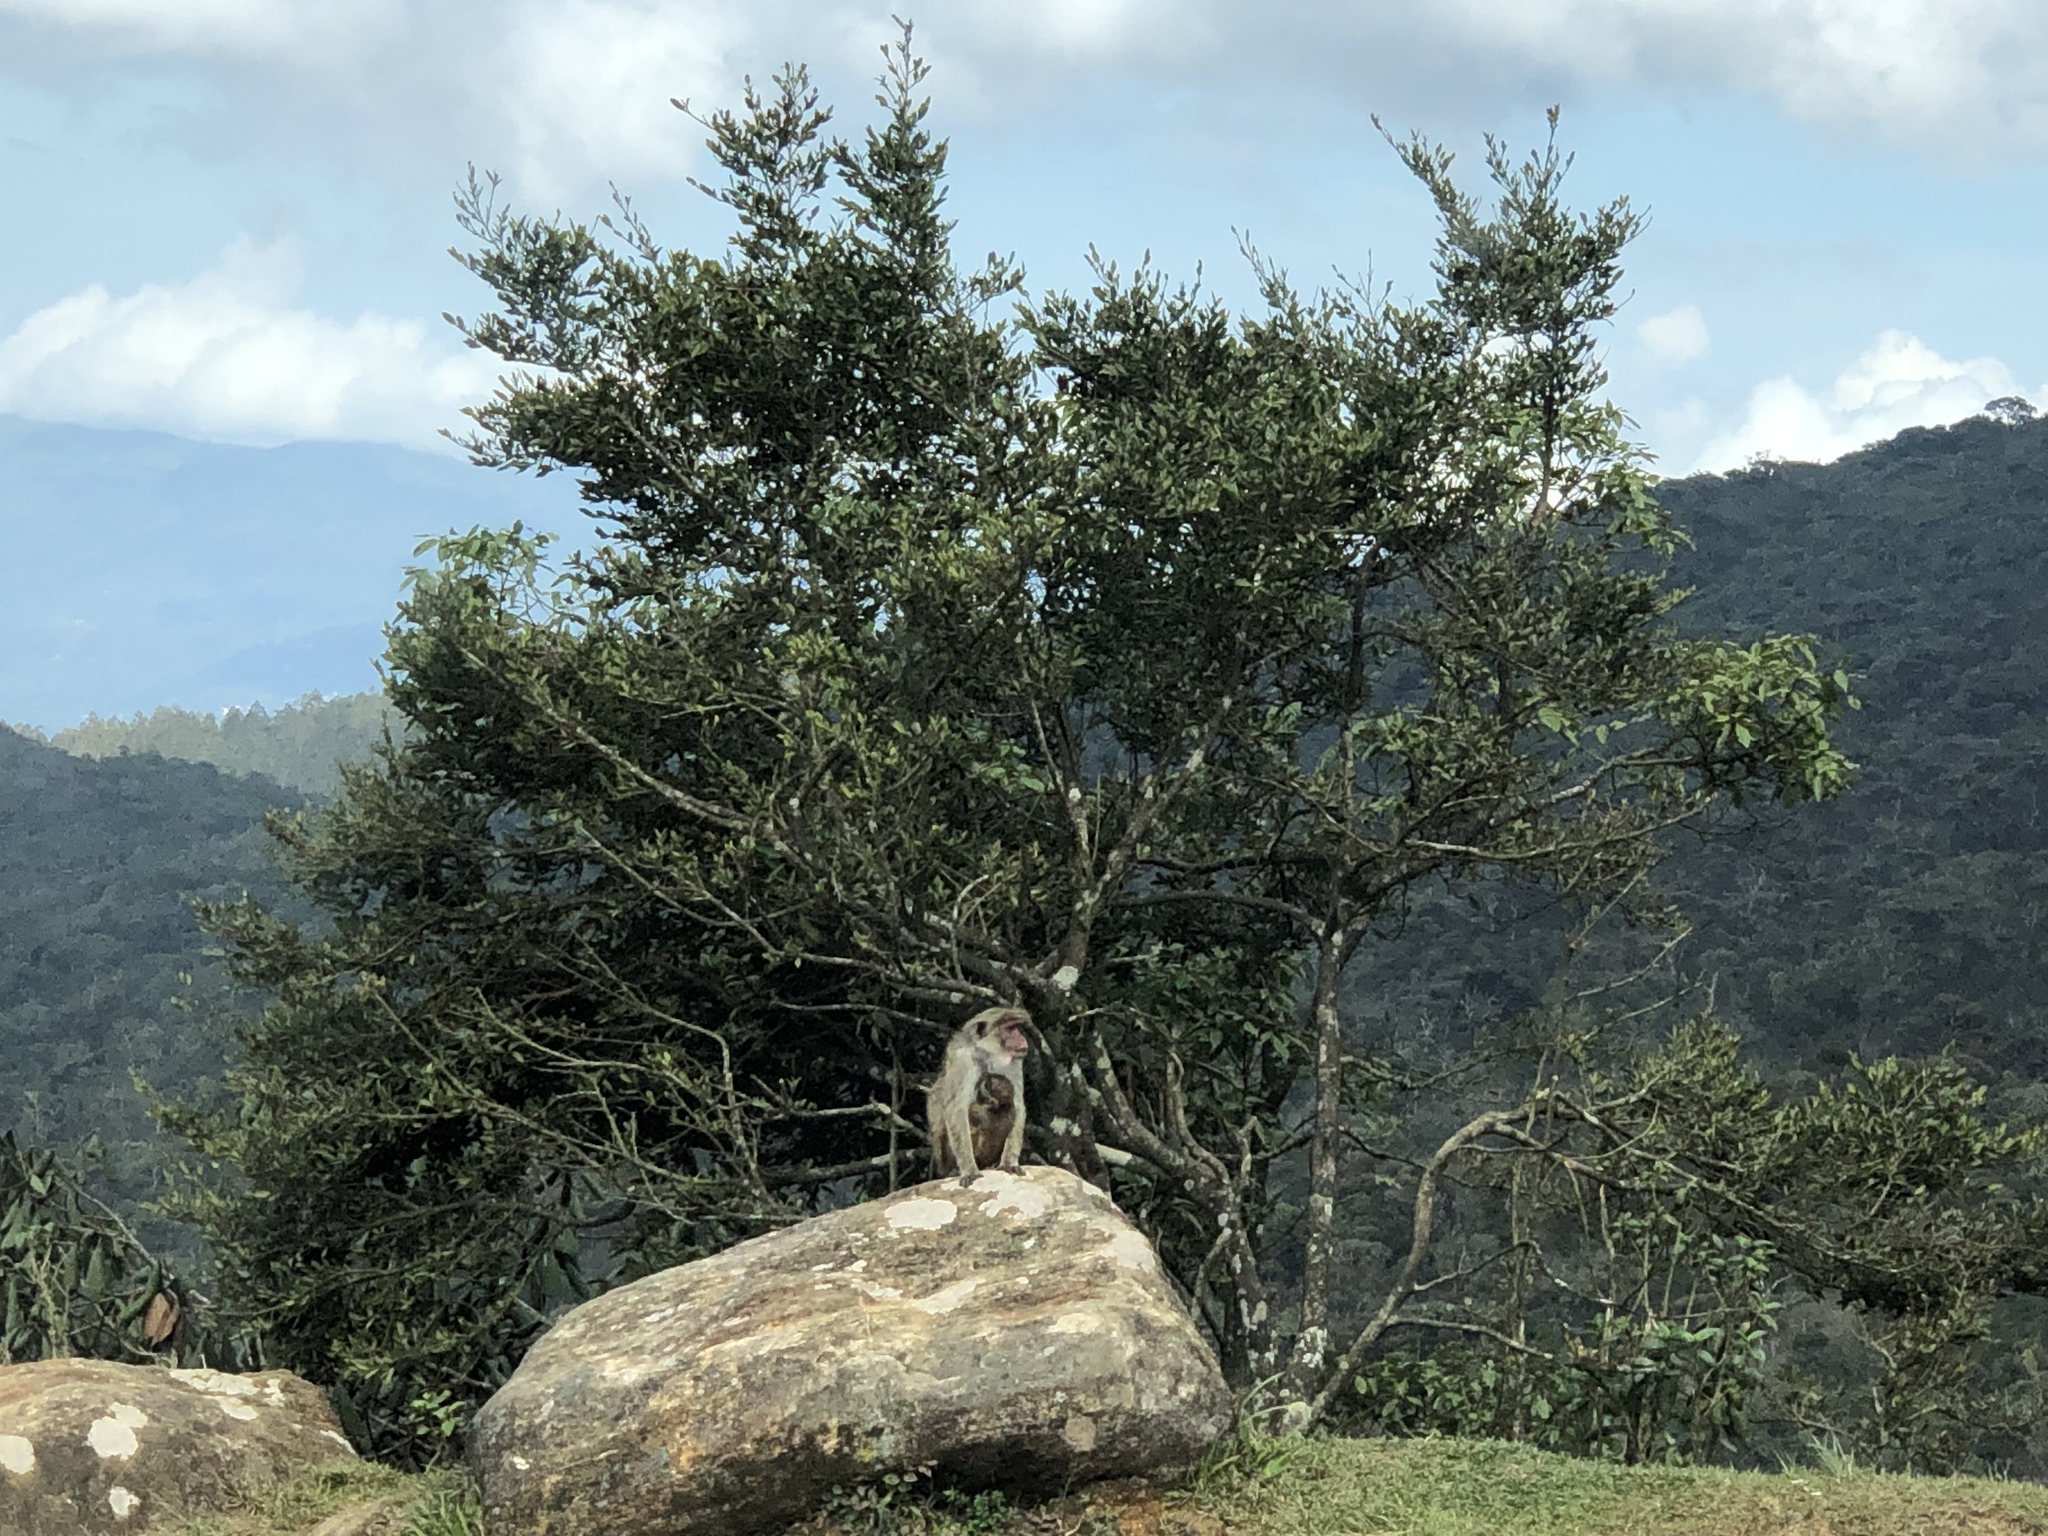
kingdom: Animalia
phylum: Chordata
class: Mammalia
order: Primates
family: Cercopithecidae
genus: Macaca
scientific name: Macaca sinica
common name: Toque macaque
